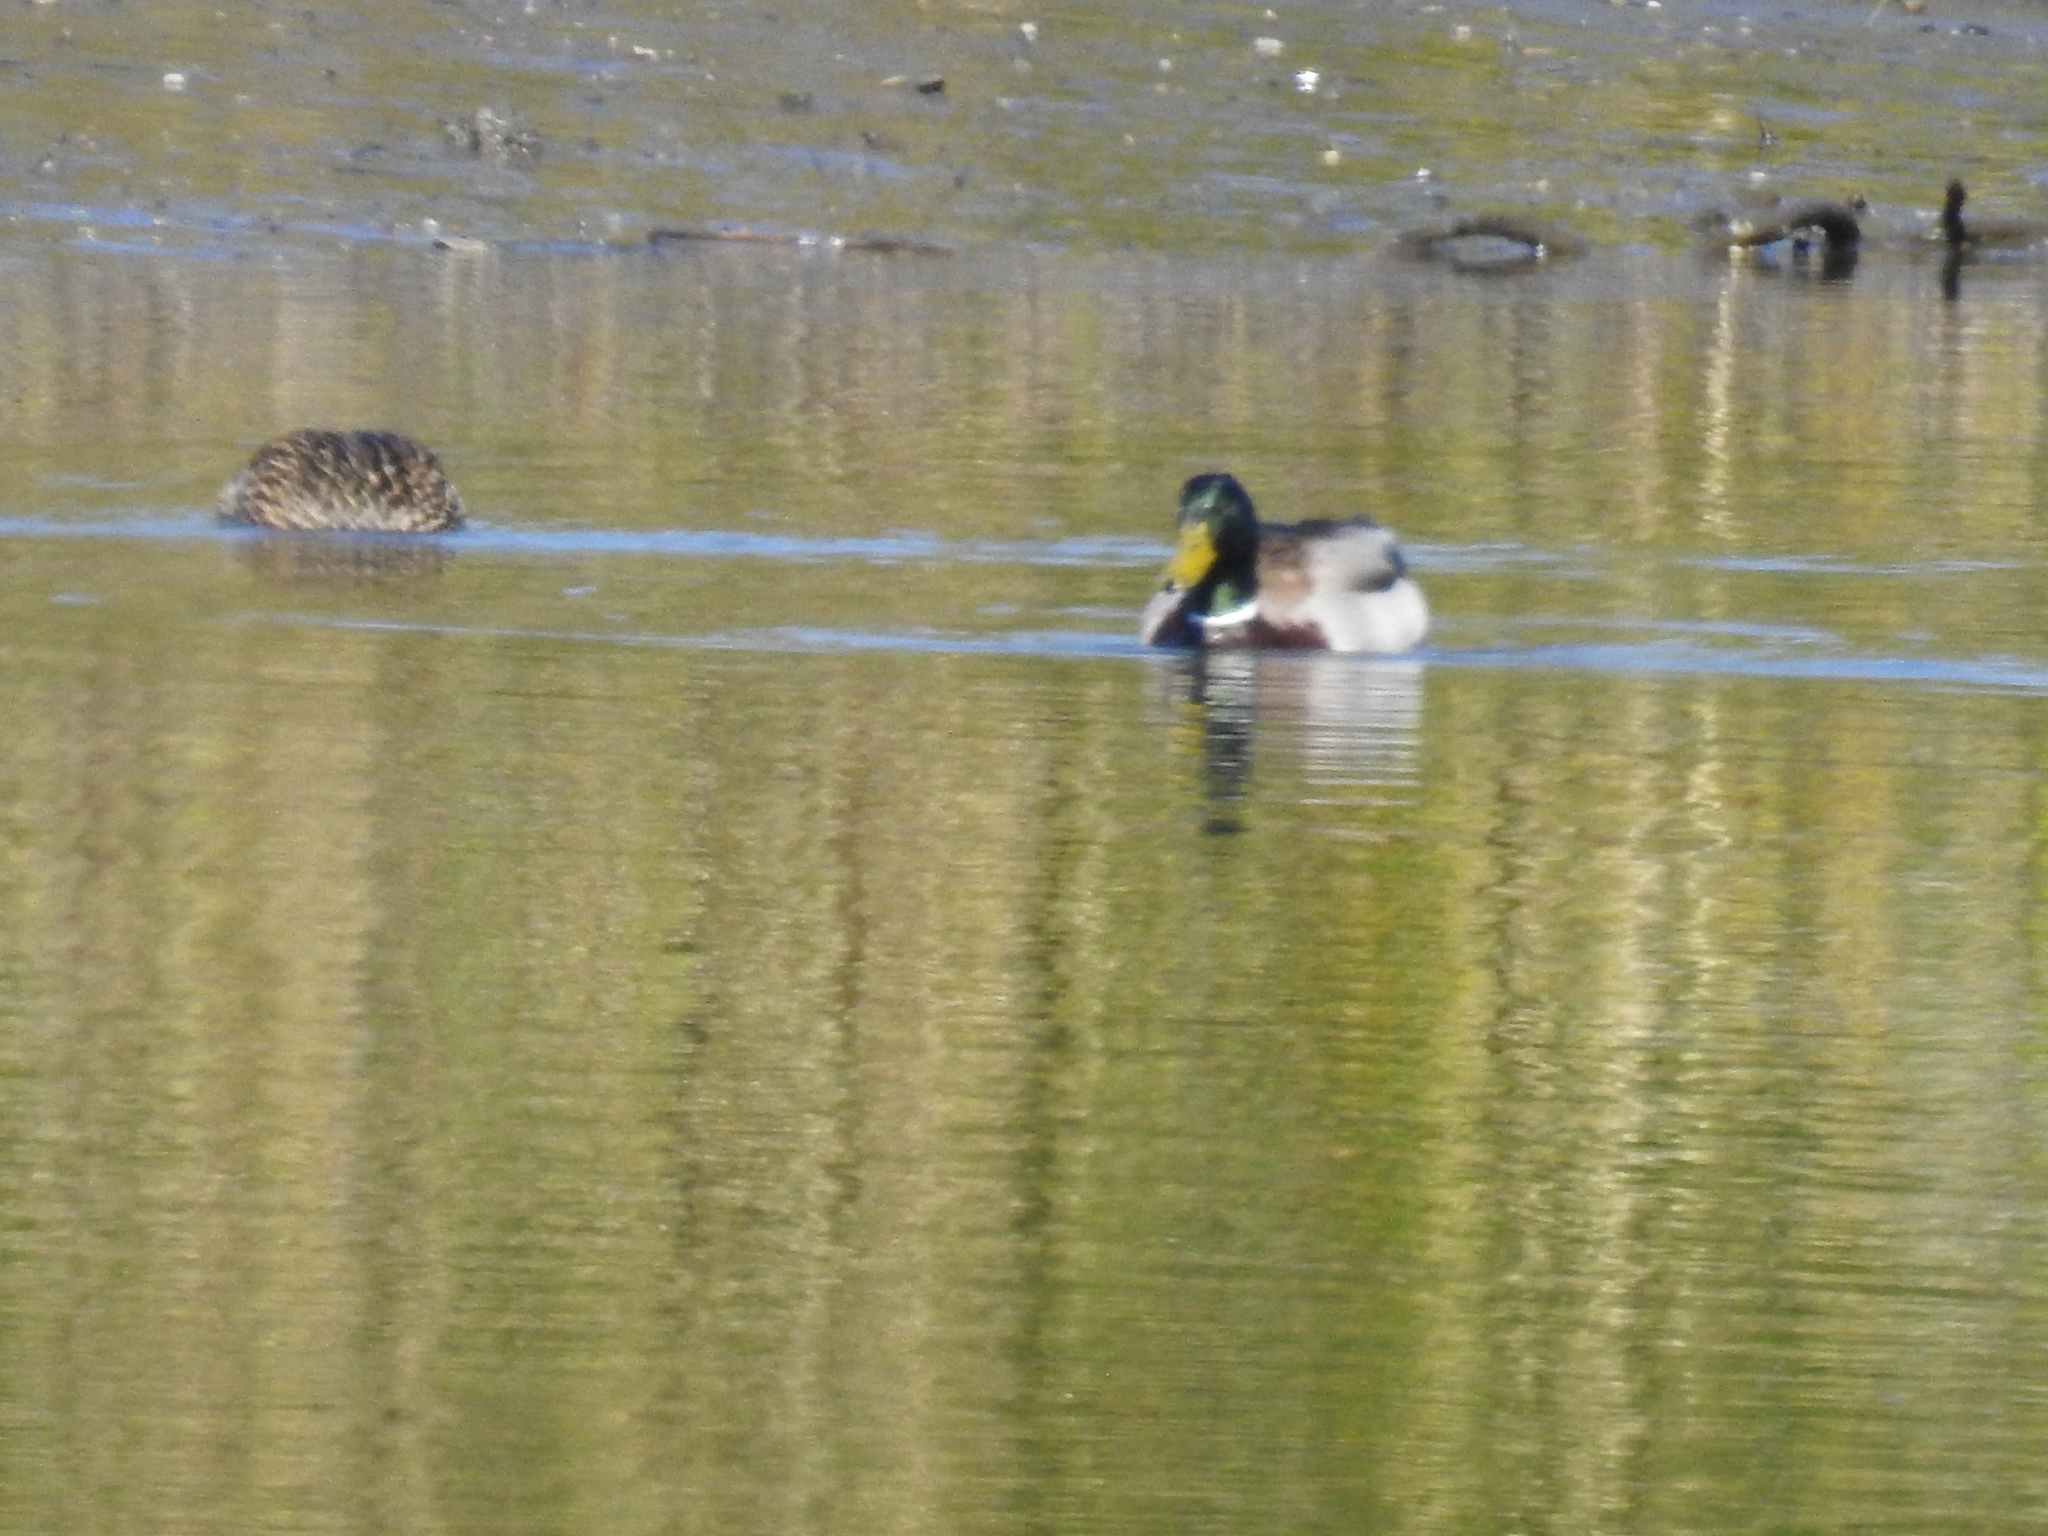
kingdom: Animalia
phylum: Chordata
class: Aves
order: Anseriformes
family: Anatidae
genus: Anas
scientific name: Anas platyrhynchos
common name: Mallard
